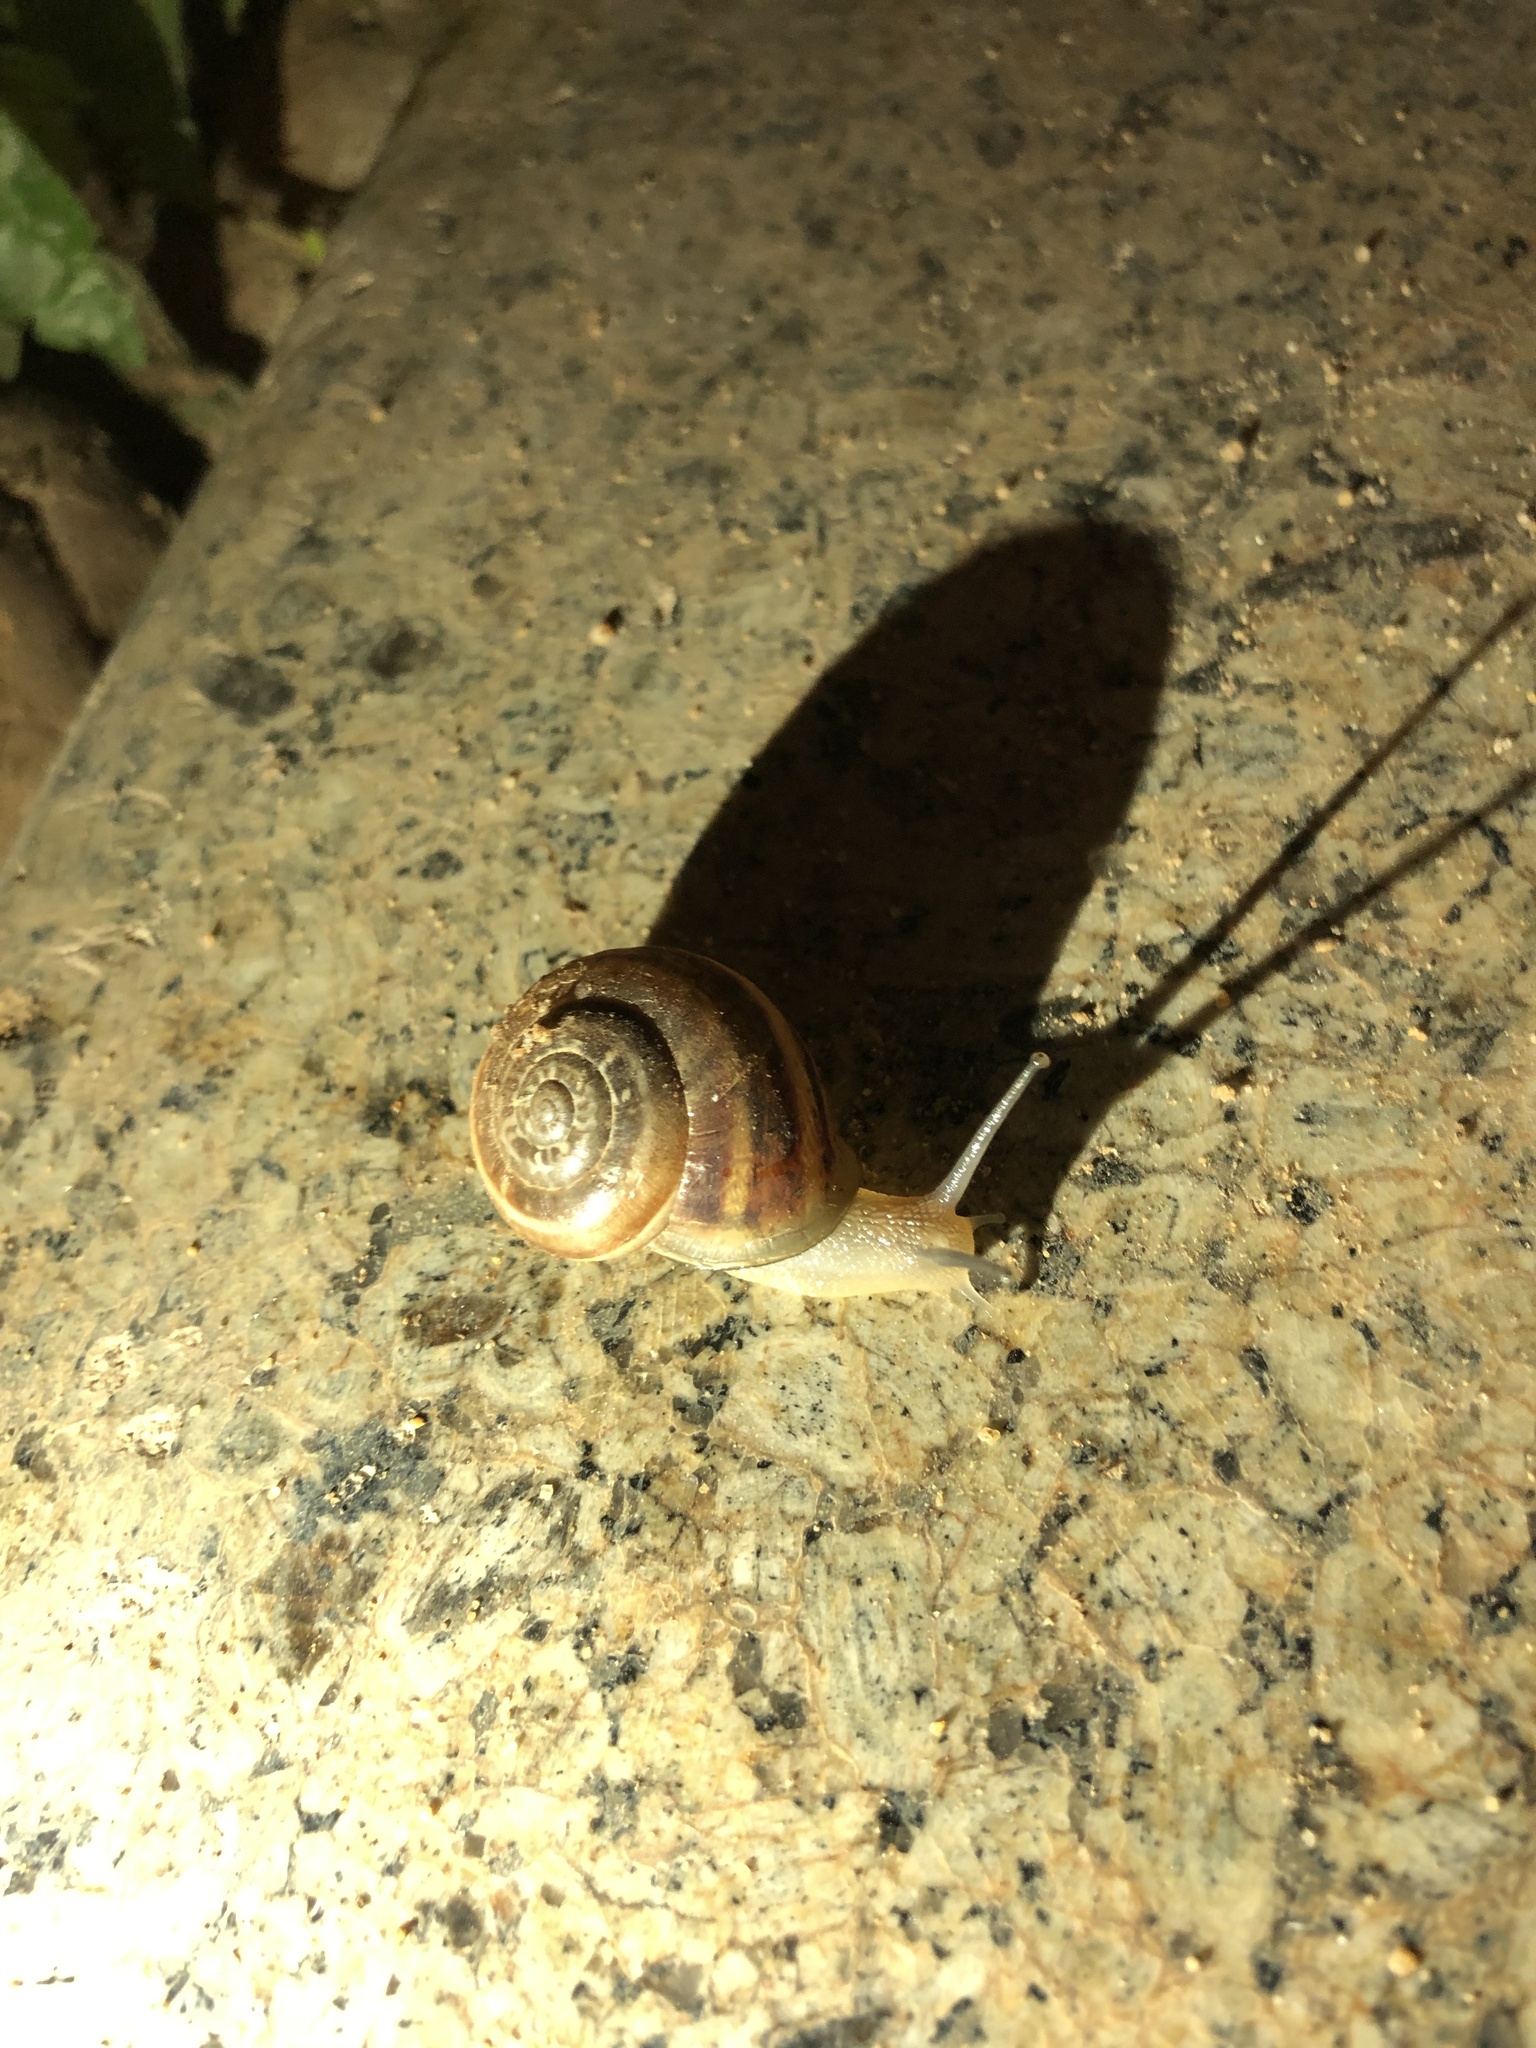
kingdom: Animalia
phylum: Mollusca
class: Gastropoda
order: Stylommatophora
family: Helicidae
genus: Eobania
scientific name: Eobania vermiculata
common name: Chocolateband snail
